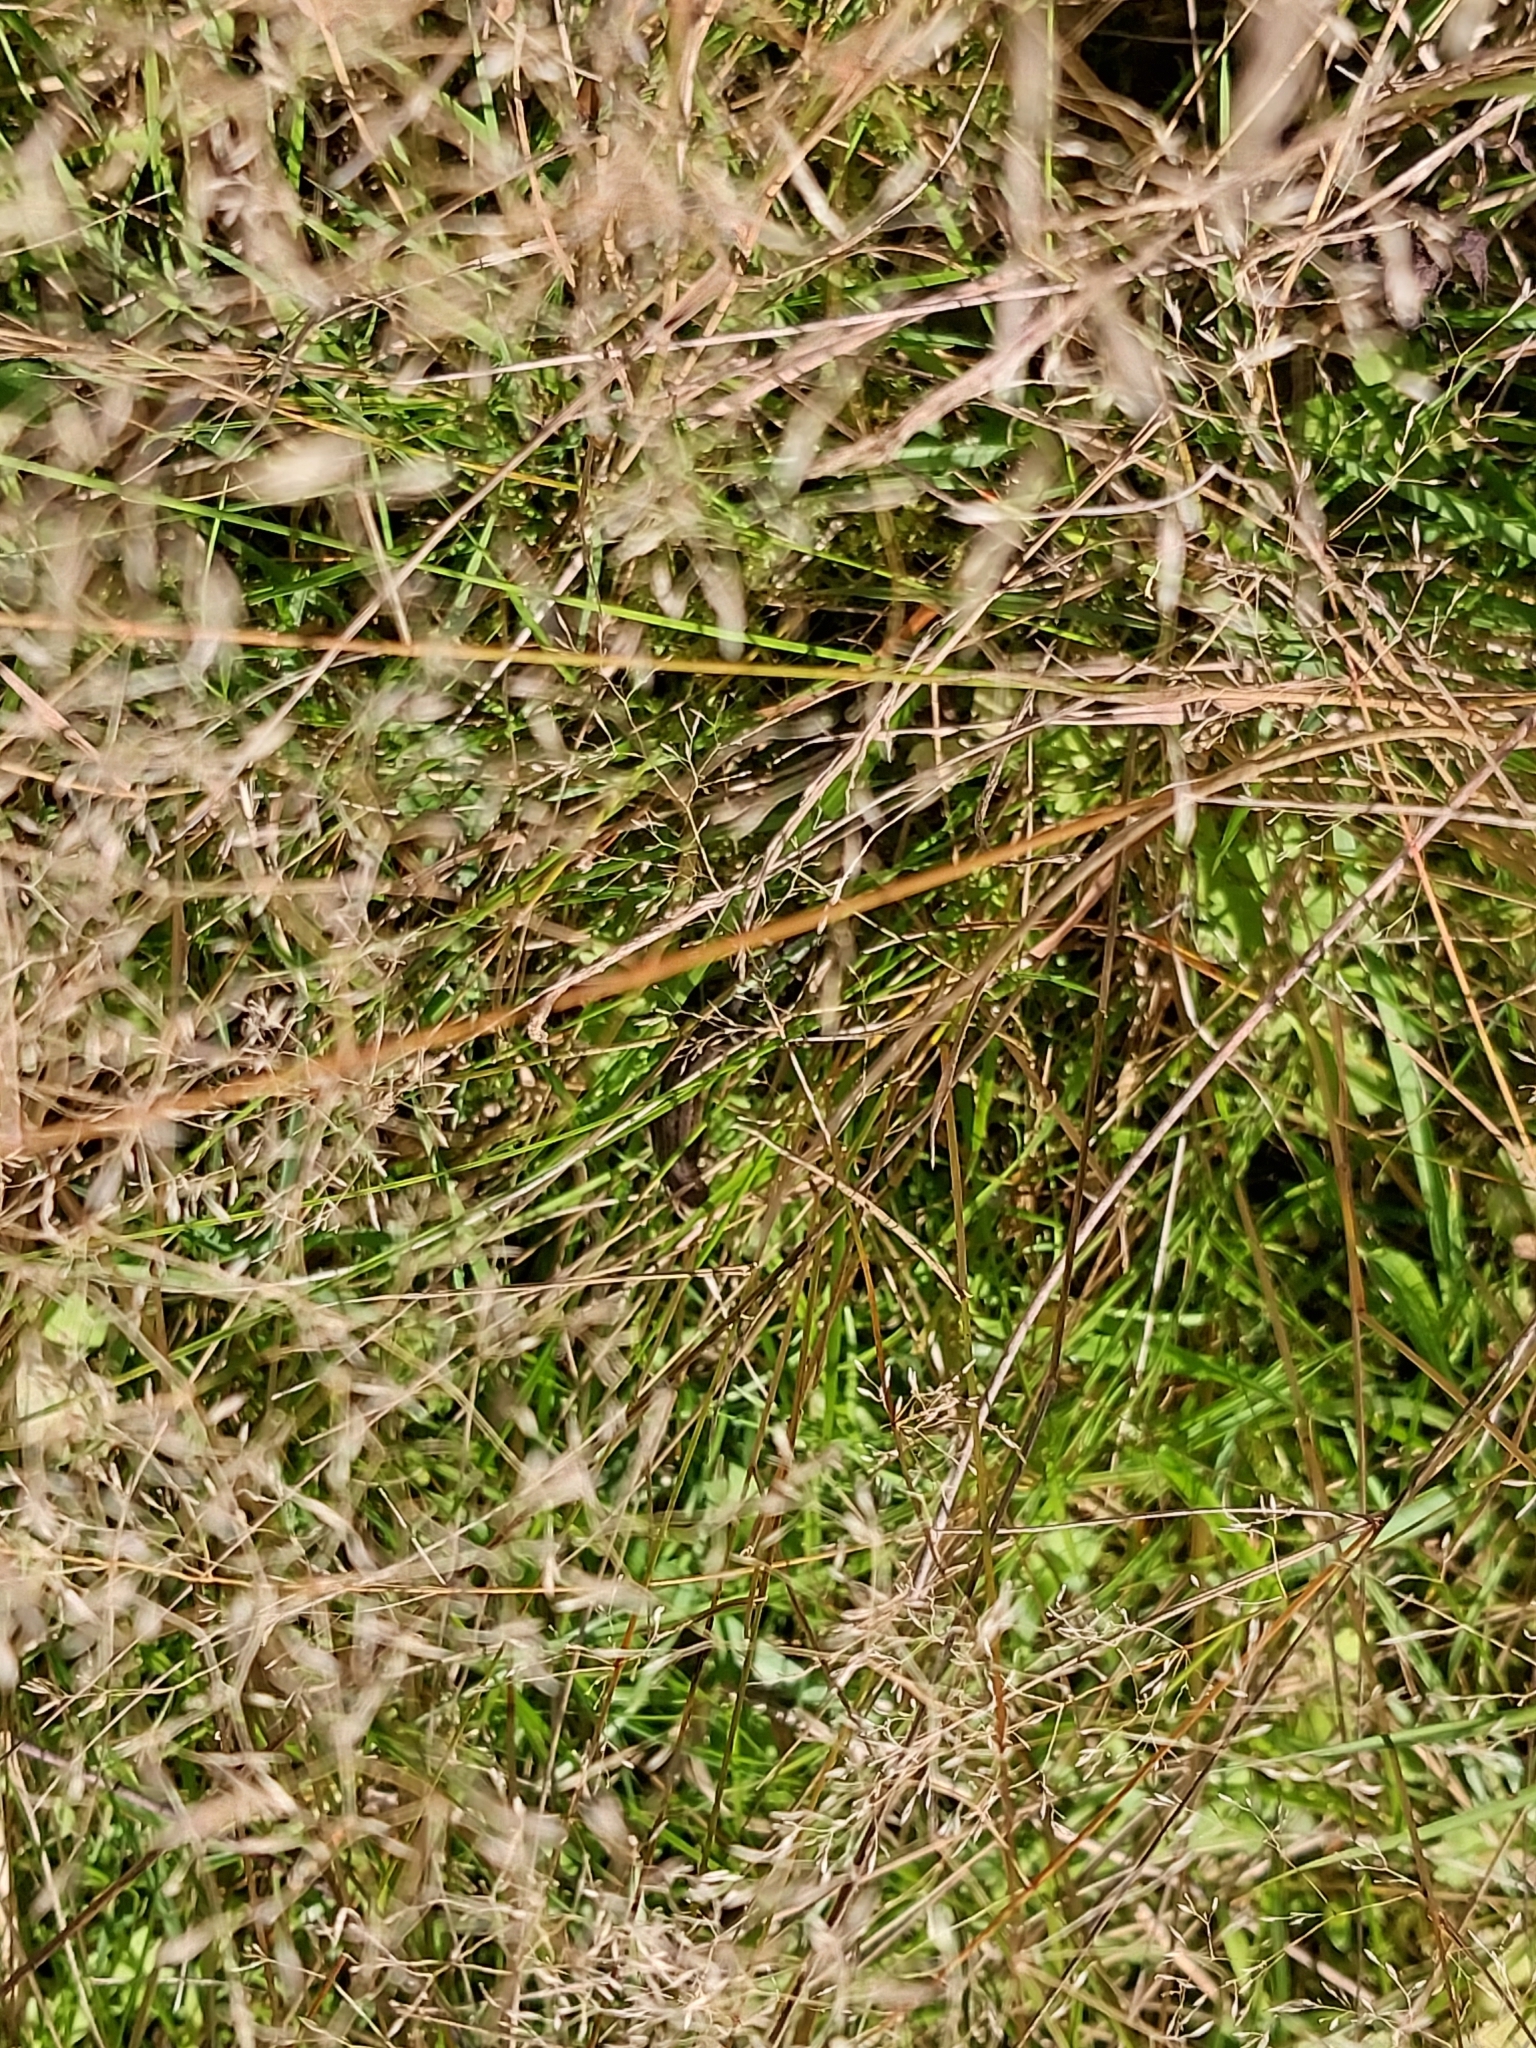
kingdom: Animalia
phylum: Chordata
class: Squamata
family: Lacertidae
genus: Zootoca
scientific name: Zootoca vivipara
